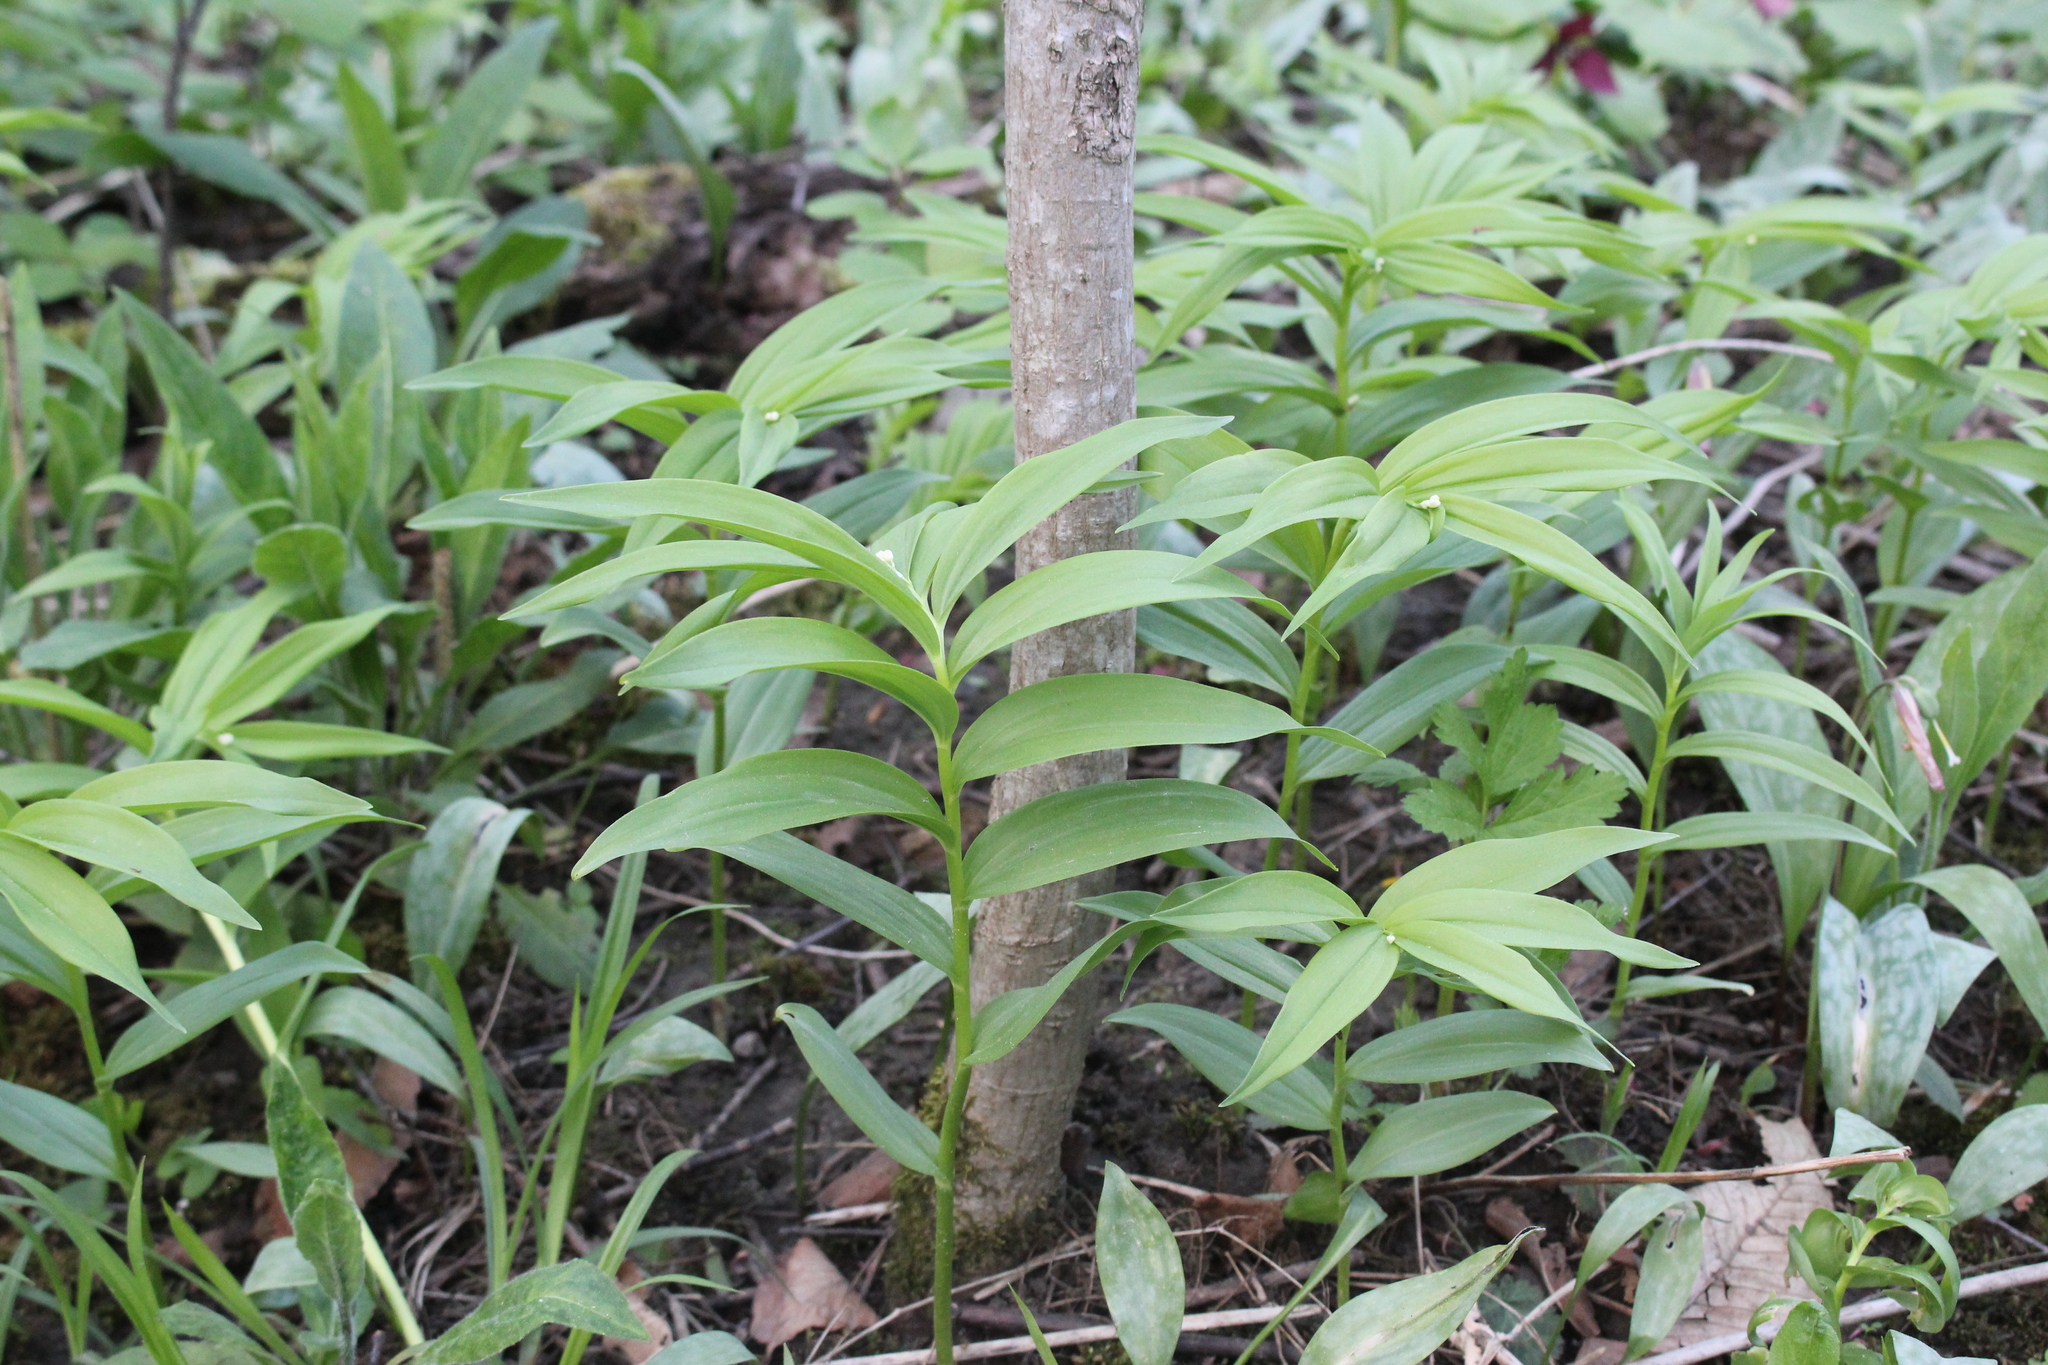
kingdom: Plantae
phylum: Tracheophyta
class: Liliopsida
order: Asparagales
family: Asparagaceae
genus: Maianthemum
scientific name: Maianthemum stellatum
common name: Little false solomon's seal
